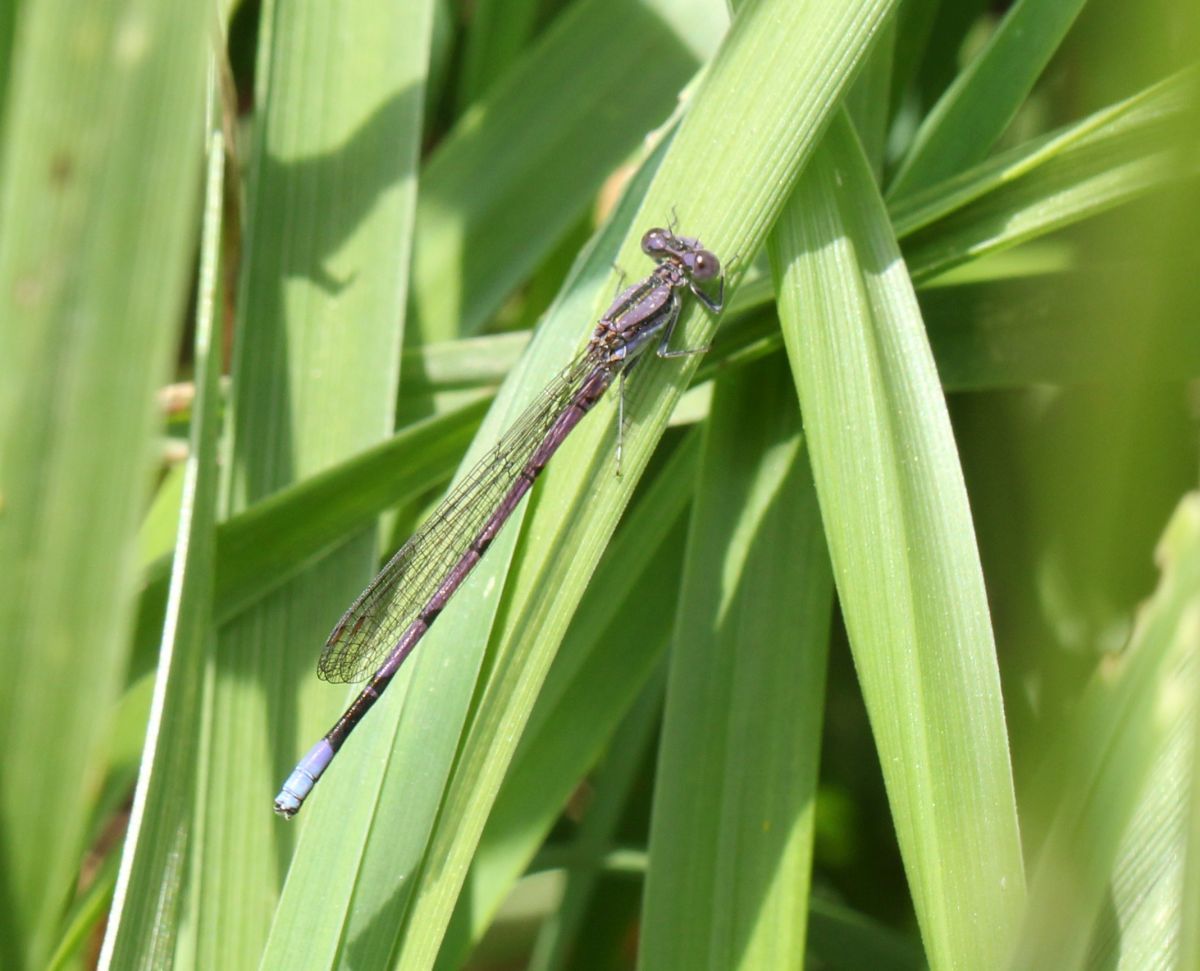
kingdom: Animalia
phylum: Arthropoda
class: Insecta
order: Odonata
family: Coenagrionidae
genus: Argia
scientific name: Argia fumipennis
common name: Variable dancer
